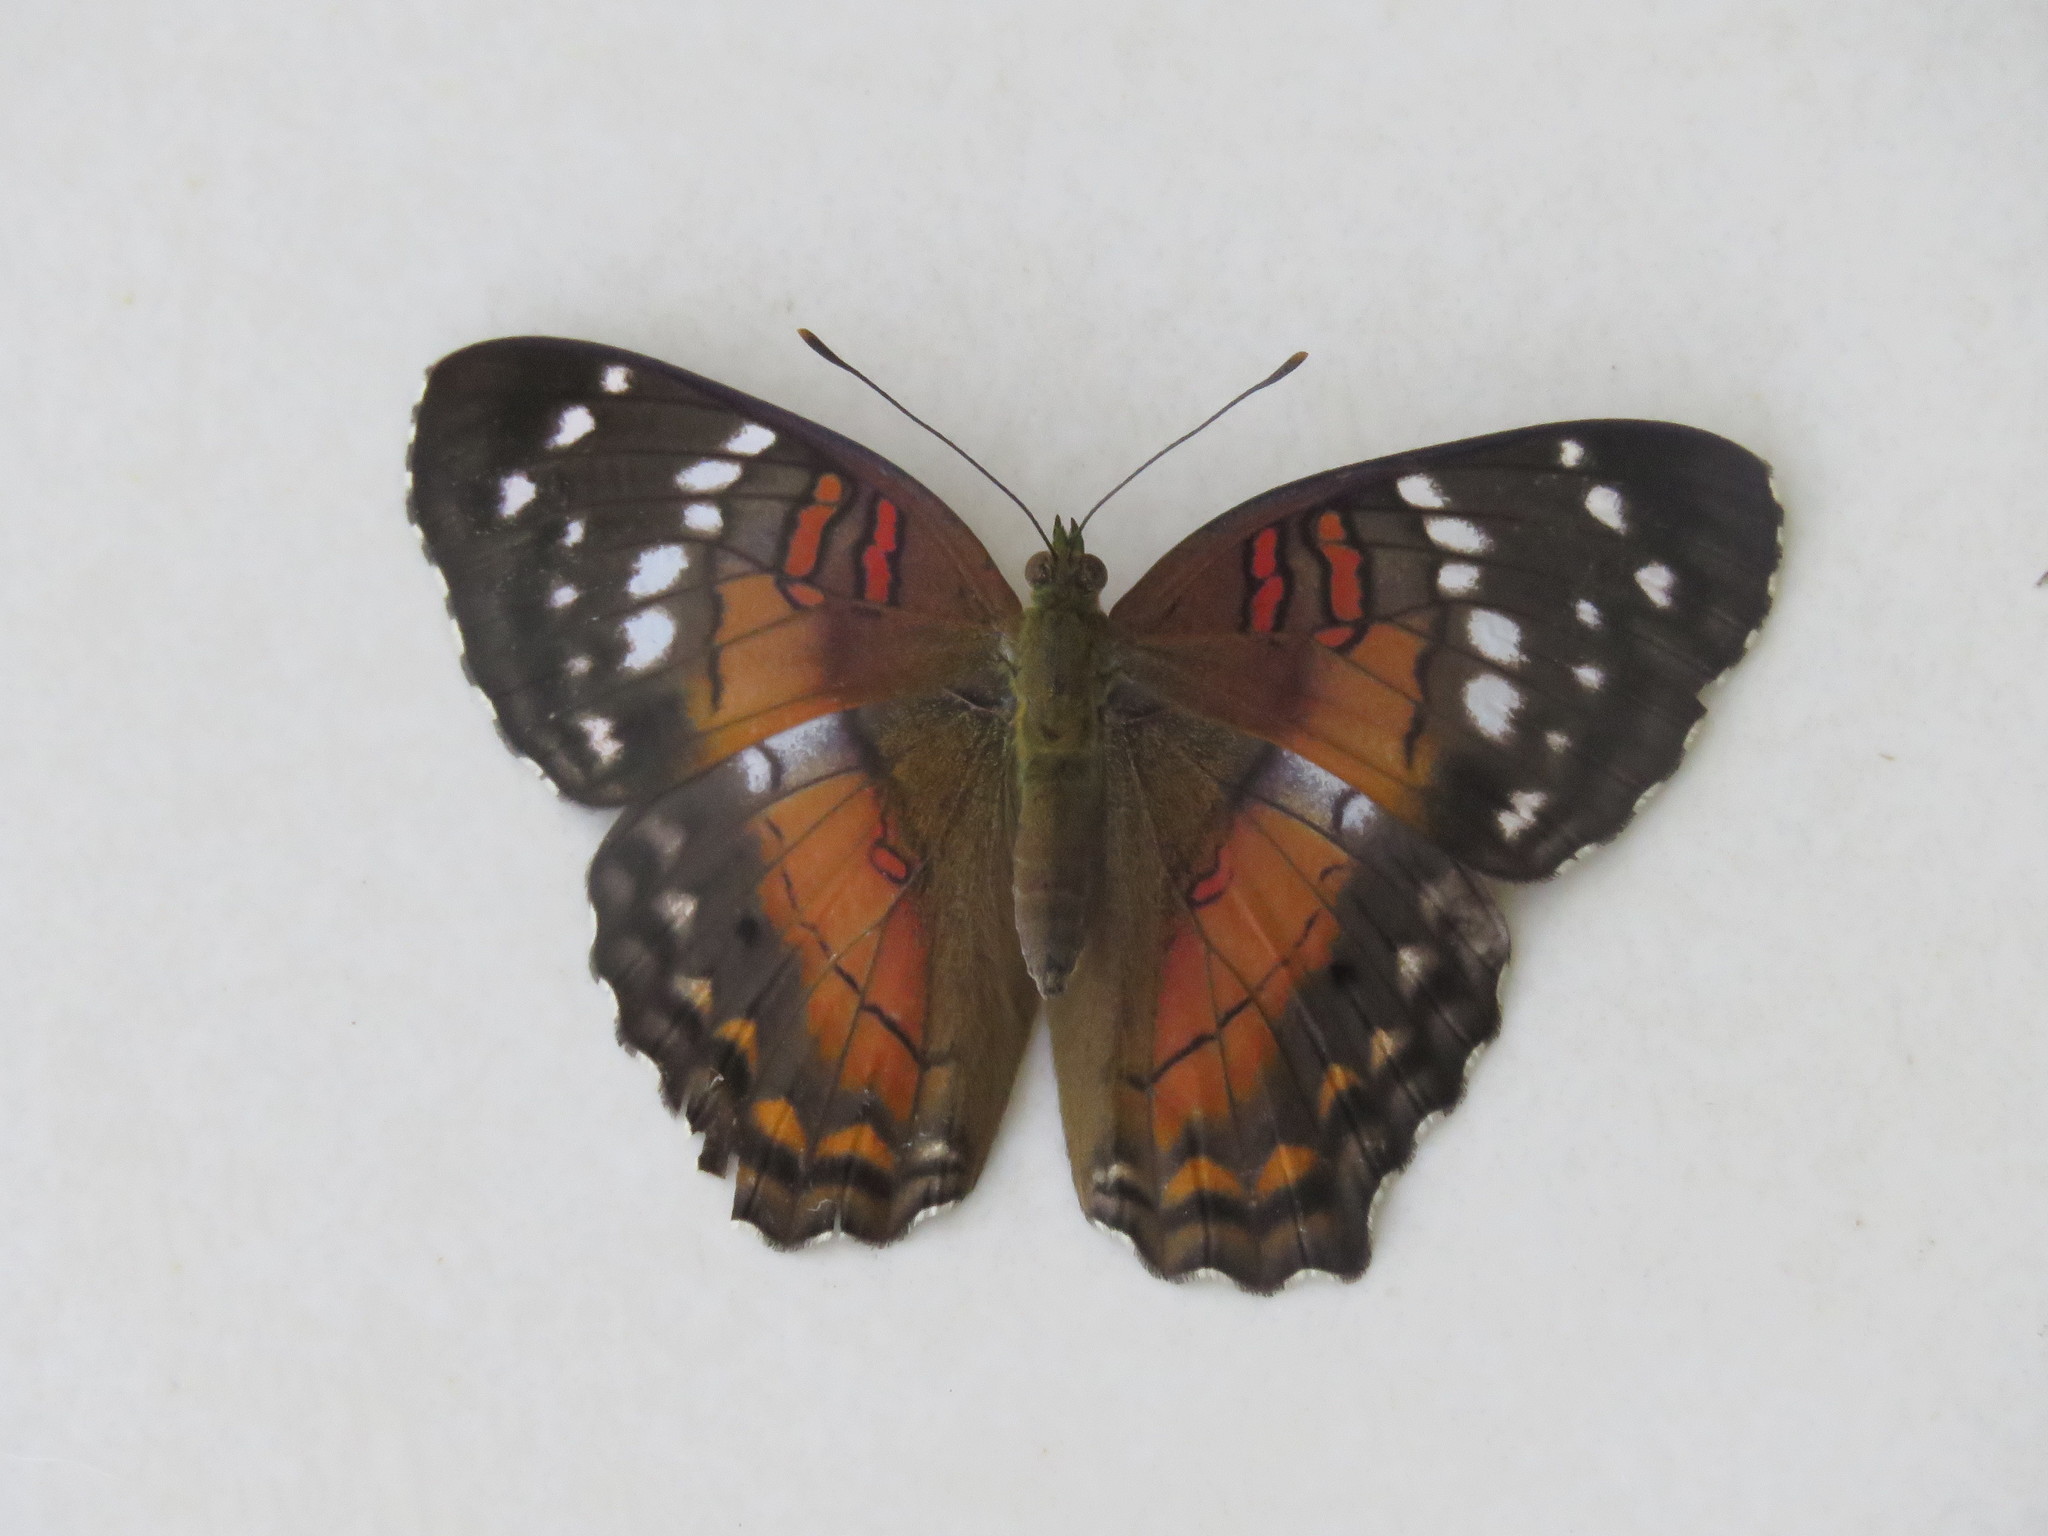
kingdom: Animalia
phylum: Arthropoda
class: Insecta
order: Lepidoptera
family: Nymphalidae
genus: Anartia
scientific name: Anartia amathea
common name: Red peacock
